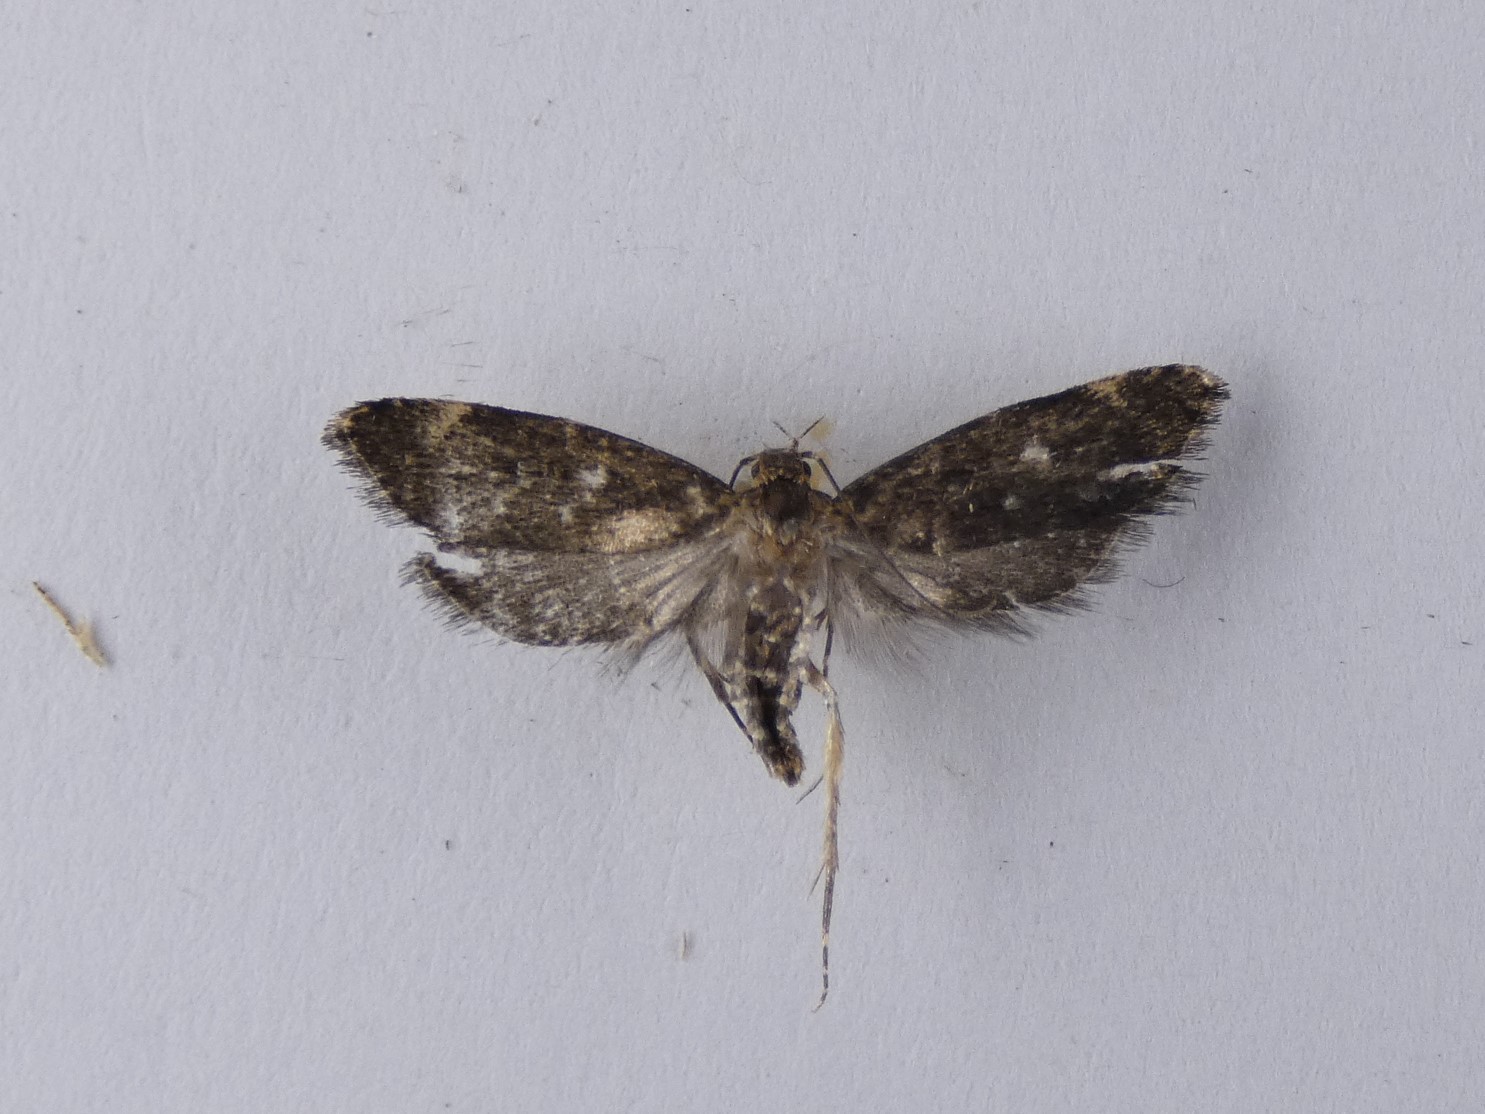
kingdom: Animalia
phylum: Arthropoda
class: Insecta
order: Lepidoptera
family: Oecophoridae
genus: Lathicrossa
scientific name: Lathicrossa leucocentra
